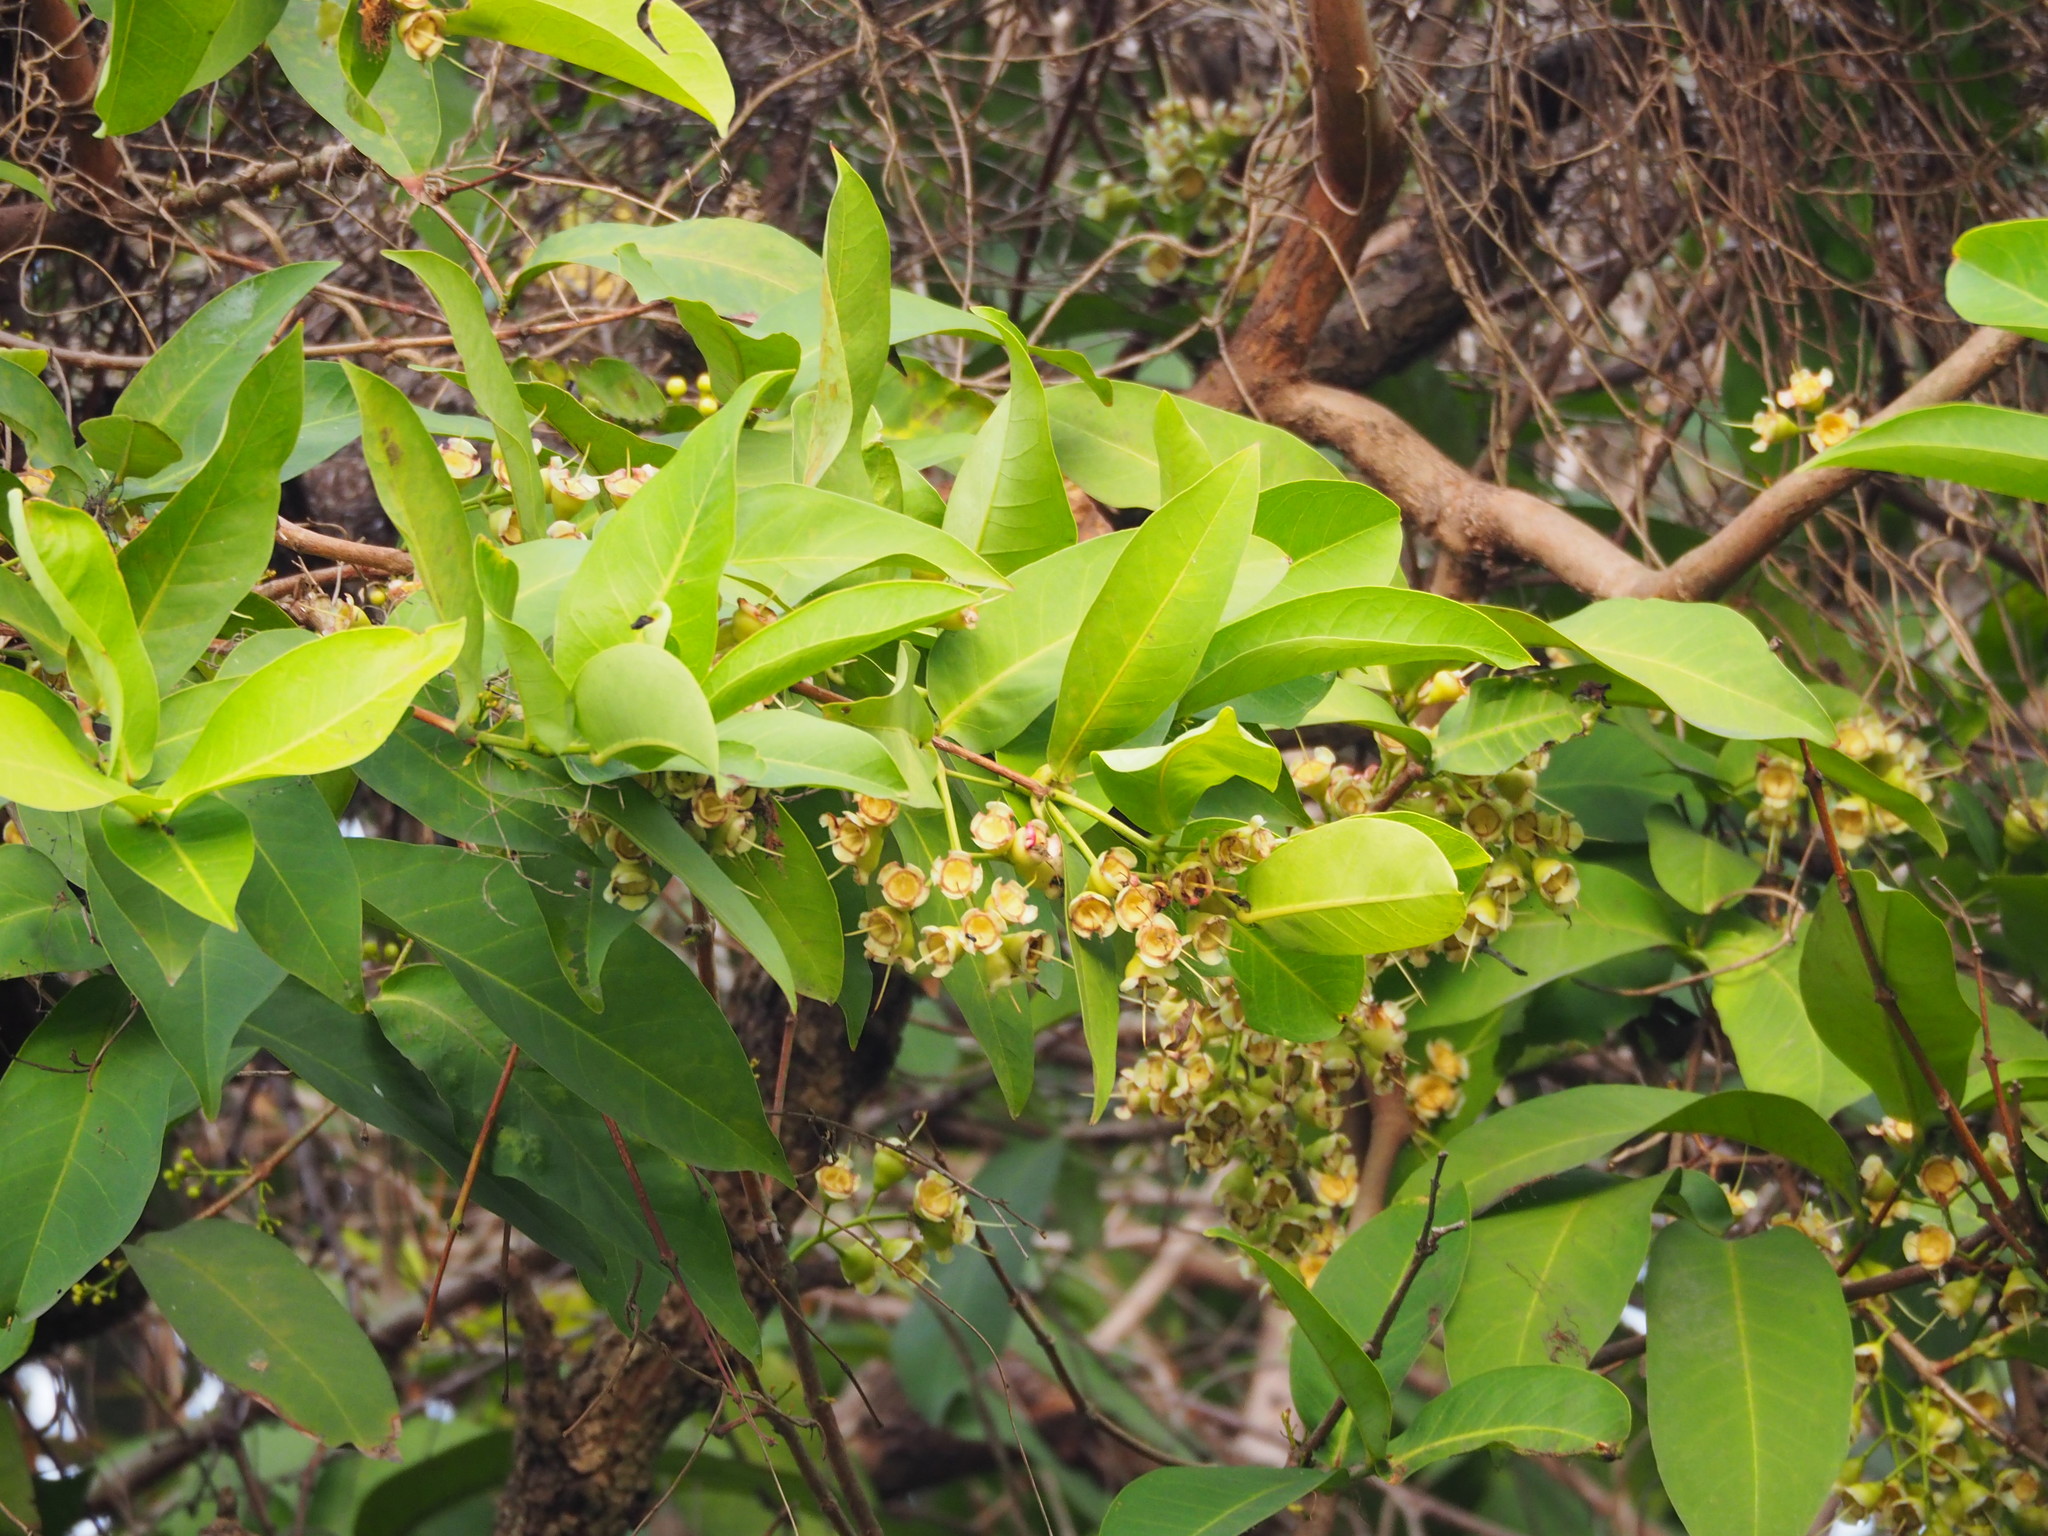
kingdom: Plantae
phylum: Tracheophyta
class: Magnoliopsida
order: Myrtales
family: Myrtaceae
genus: Syzygium
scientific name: Syzygium samarangense
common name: Semarang rose-apple
